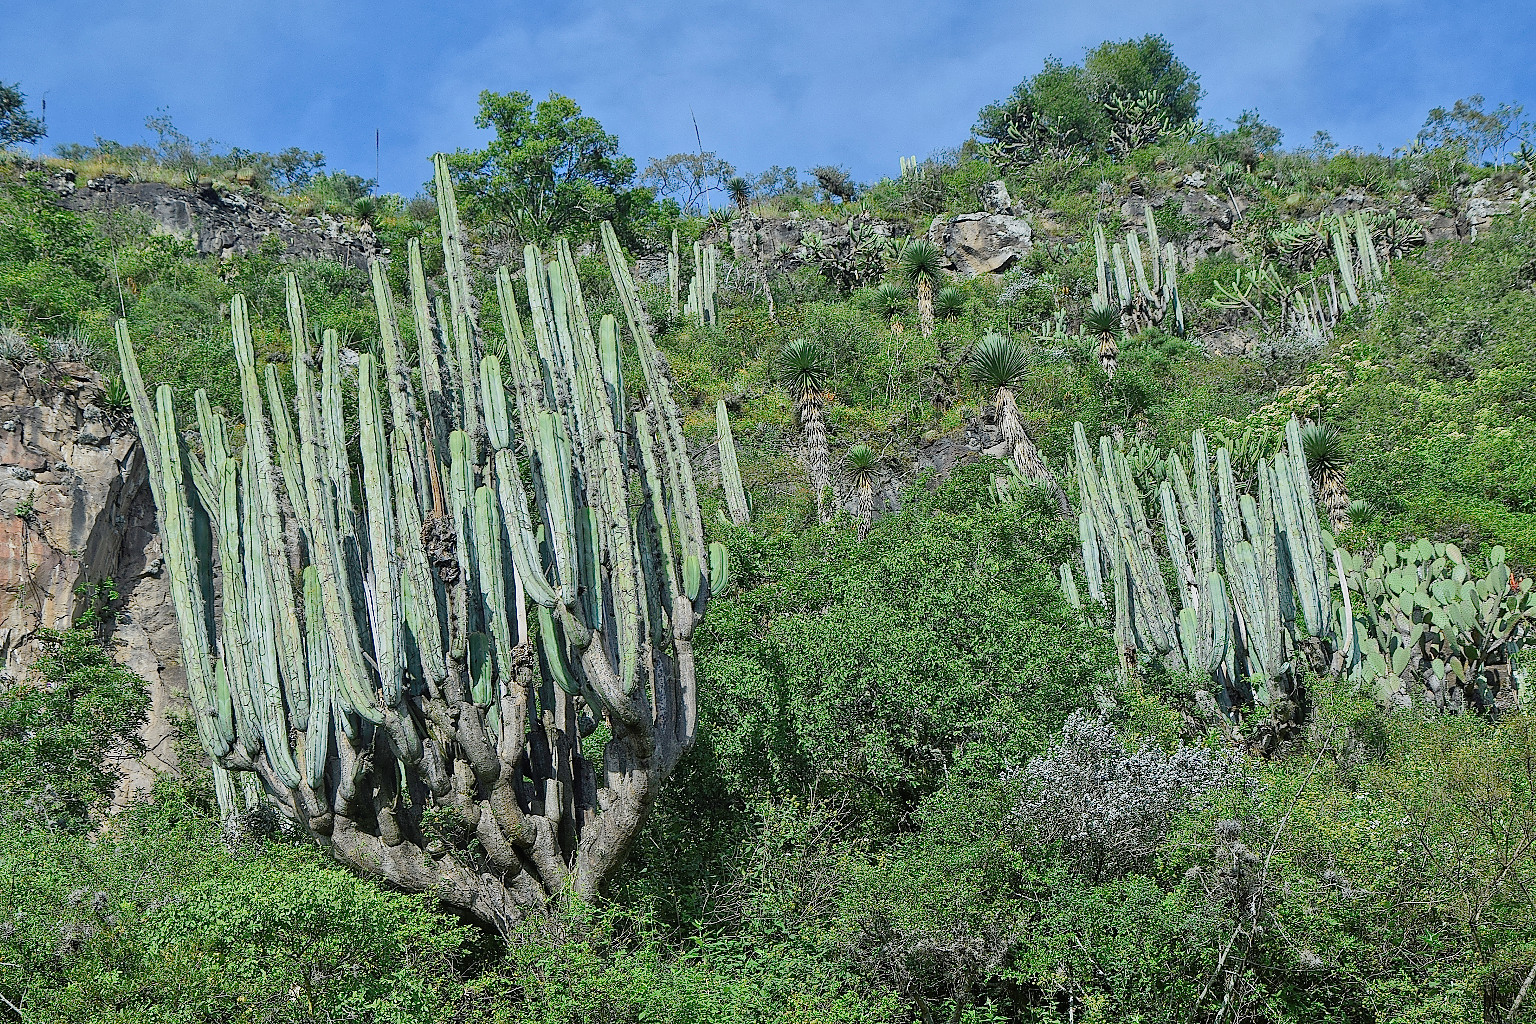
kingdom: Plantae
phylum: Tracheophyta
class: Magnoliopsida
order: Caryophyllales
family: Cactaceae
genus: Stenocereus
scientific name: Stenocereus dumortieri
